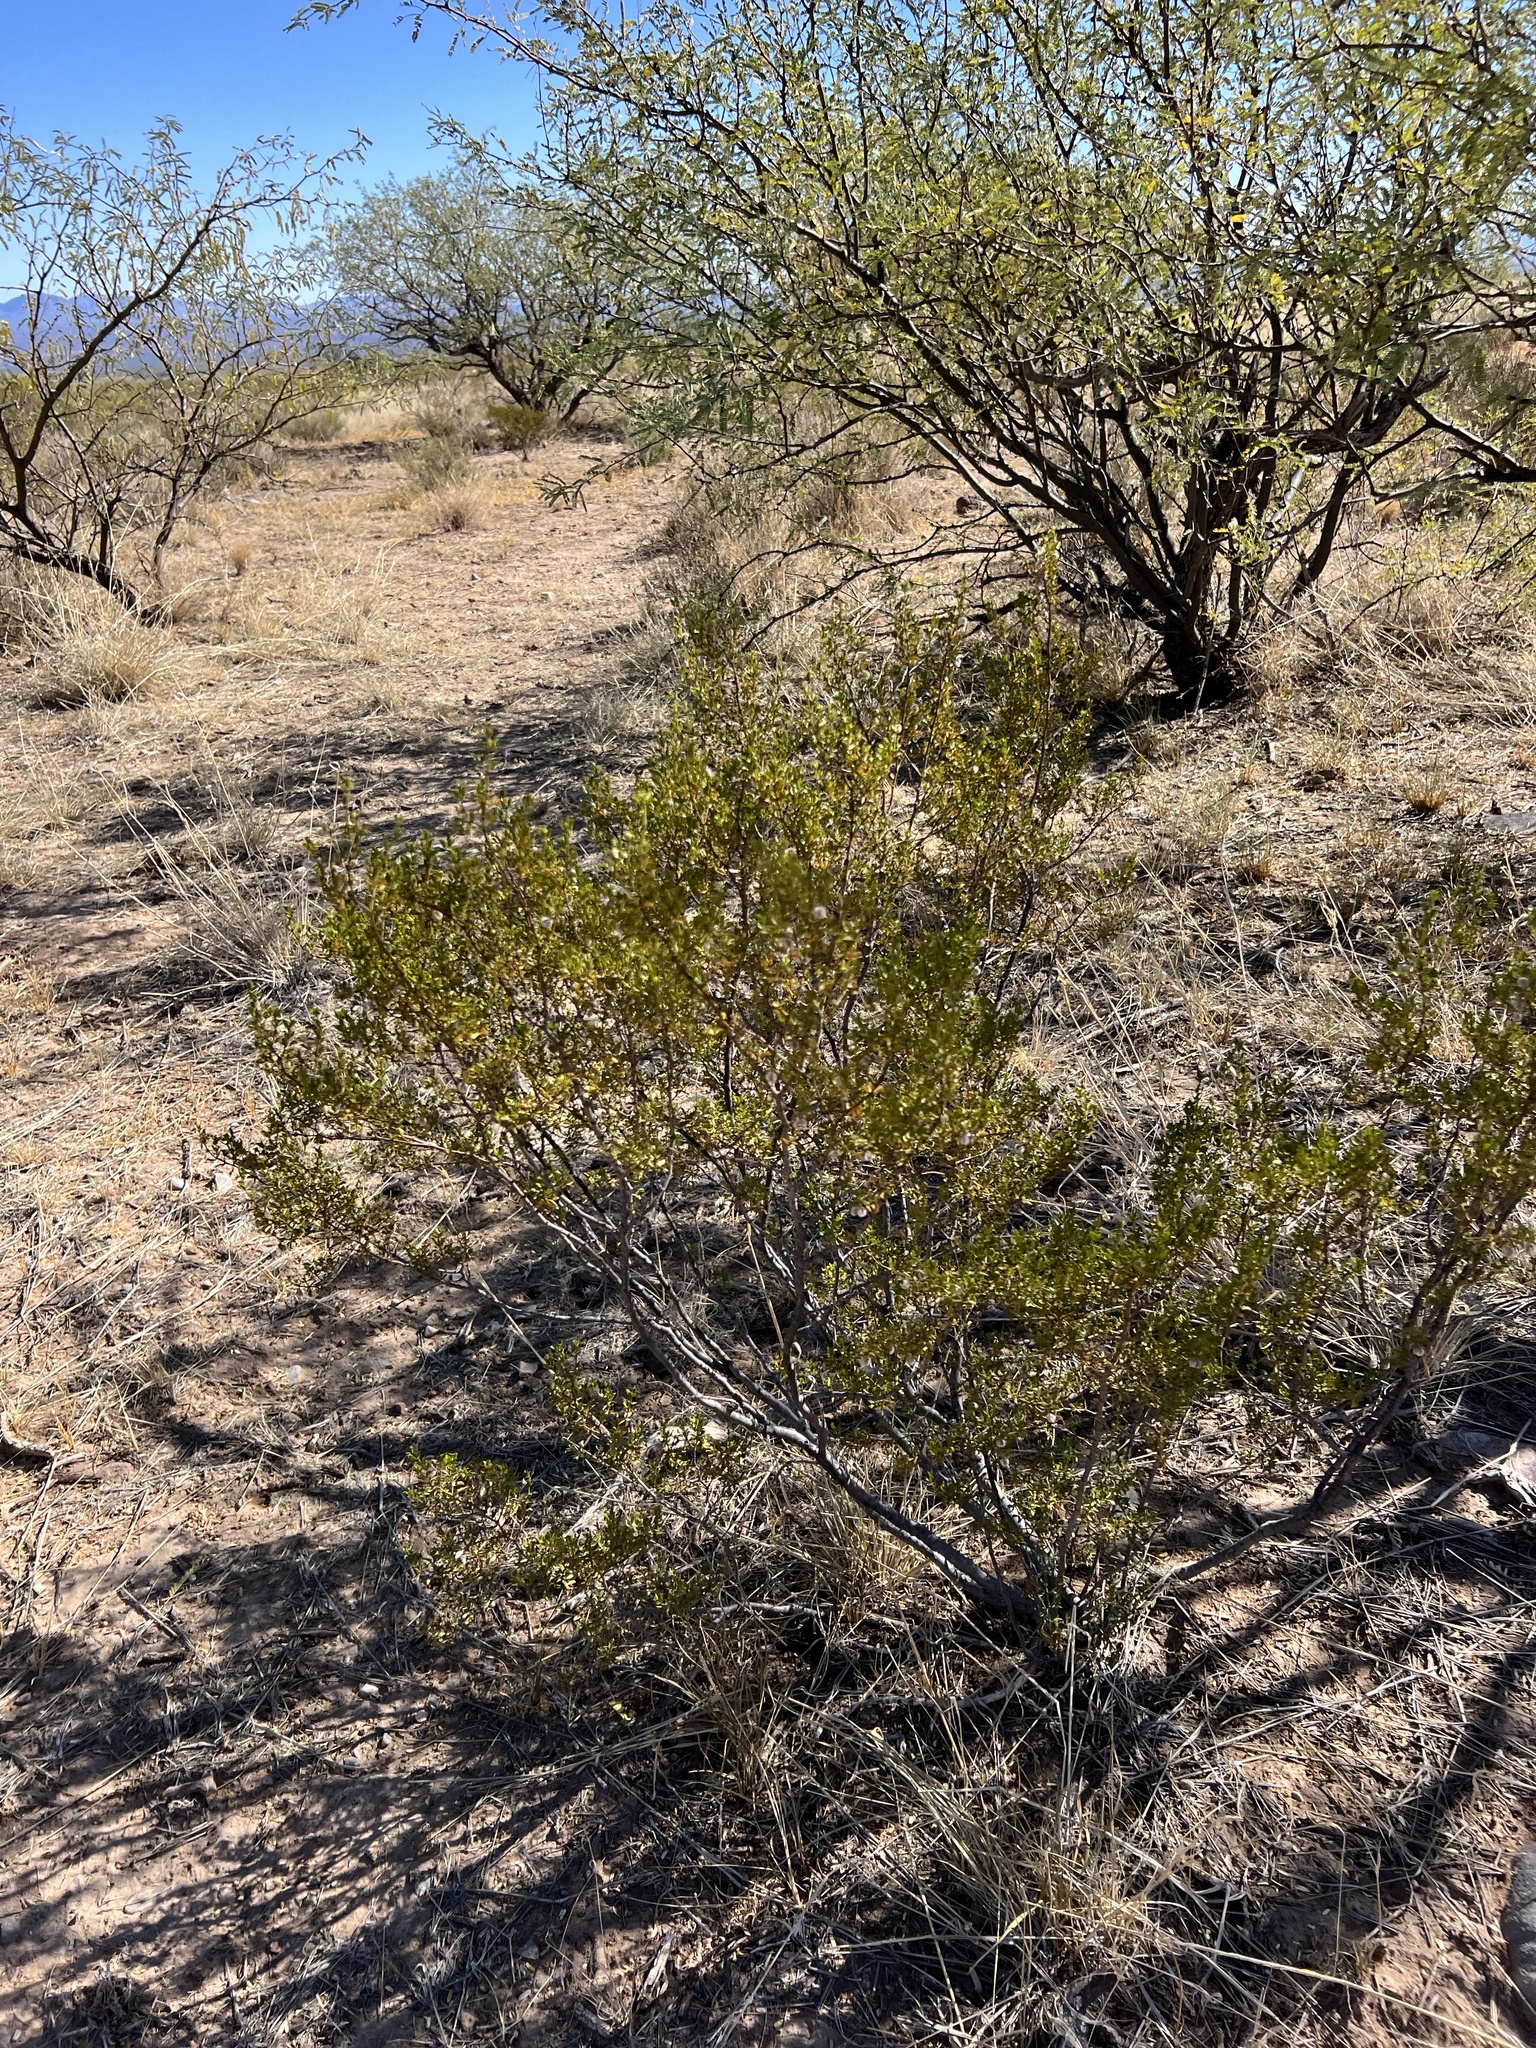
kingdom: Plantae
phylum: Tracheophyta
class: Magnoliopsida
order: Zygophyllales
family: Zygophyllaceae
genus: Larrea
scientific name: Larrea tridentata
